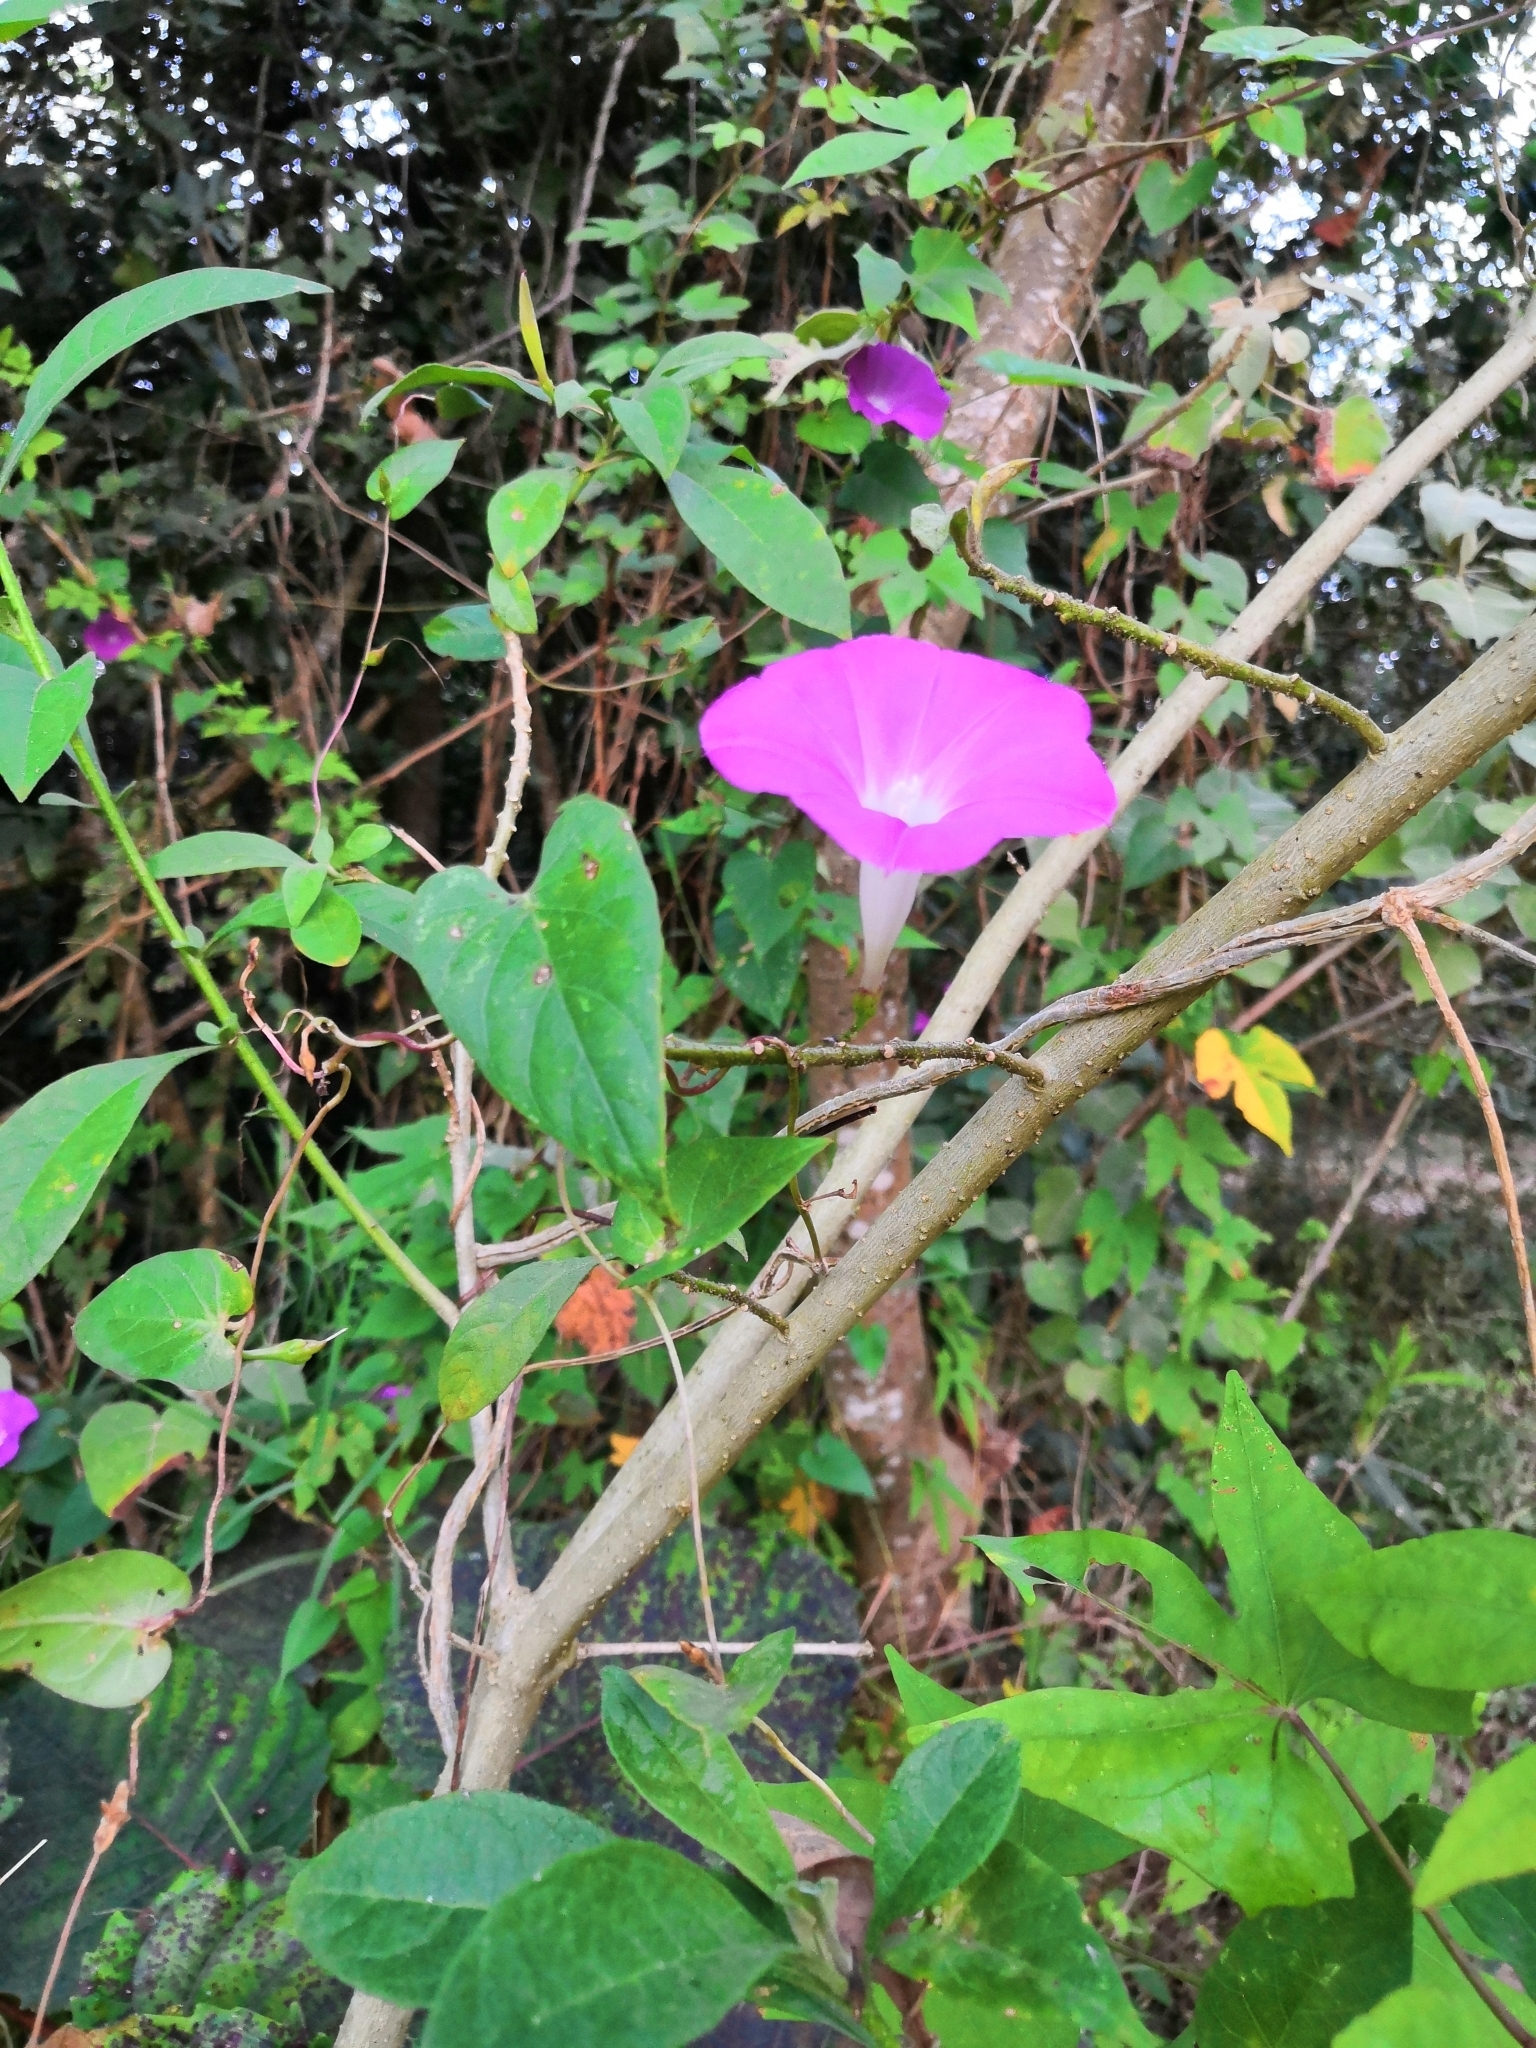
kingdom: Plantae
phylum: Tracheophyta
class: Magnoliopsida
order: Solanales
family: Convolvulaceae
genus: Ipomoea
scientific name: Ipomoea dumosa
